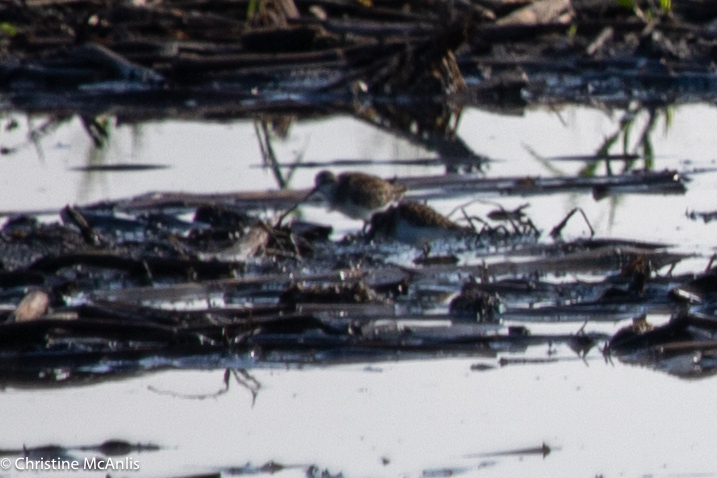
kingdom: Animalia
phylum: Chordata
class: Aves
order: Charadriiformes
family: Scolopacidae
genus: Calidris
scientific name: Calidris minutilla
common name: Least sandpiper
